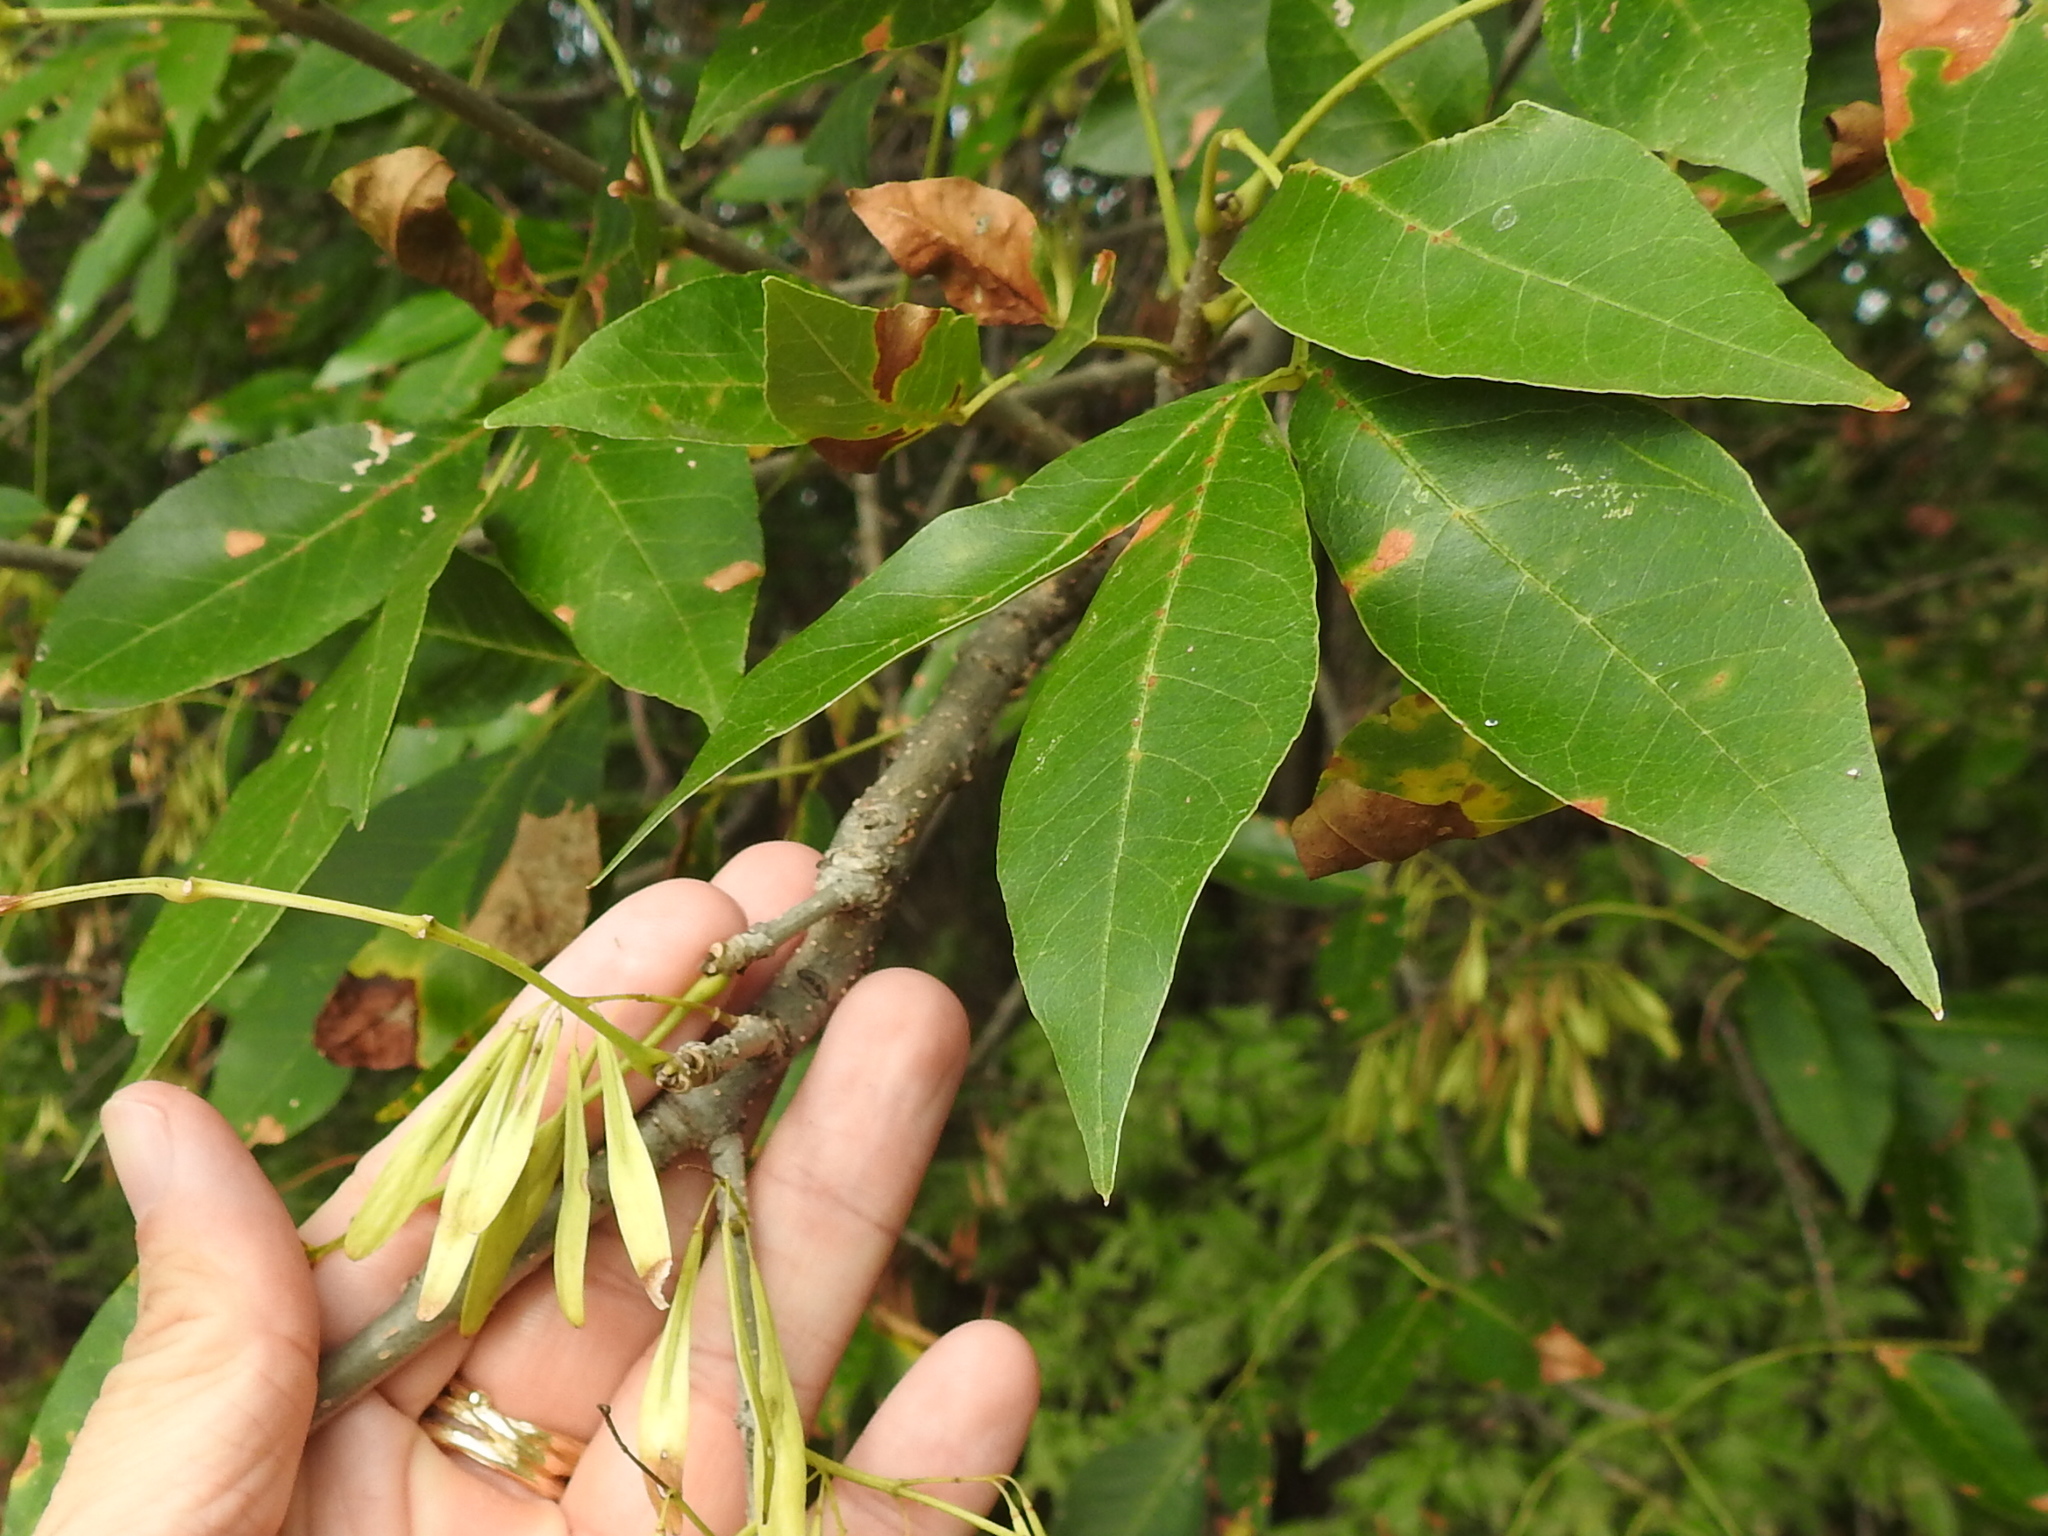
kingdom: Plantae
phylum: Tracheophyta
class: Magnoliopsida
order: Lamiales
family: Oleaceae
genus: Fraxinus
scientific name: Fraxinus pennsylvanica
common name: Green ash
